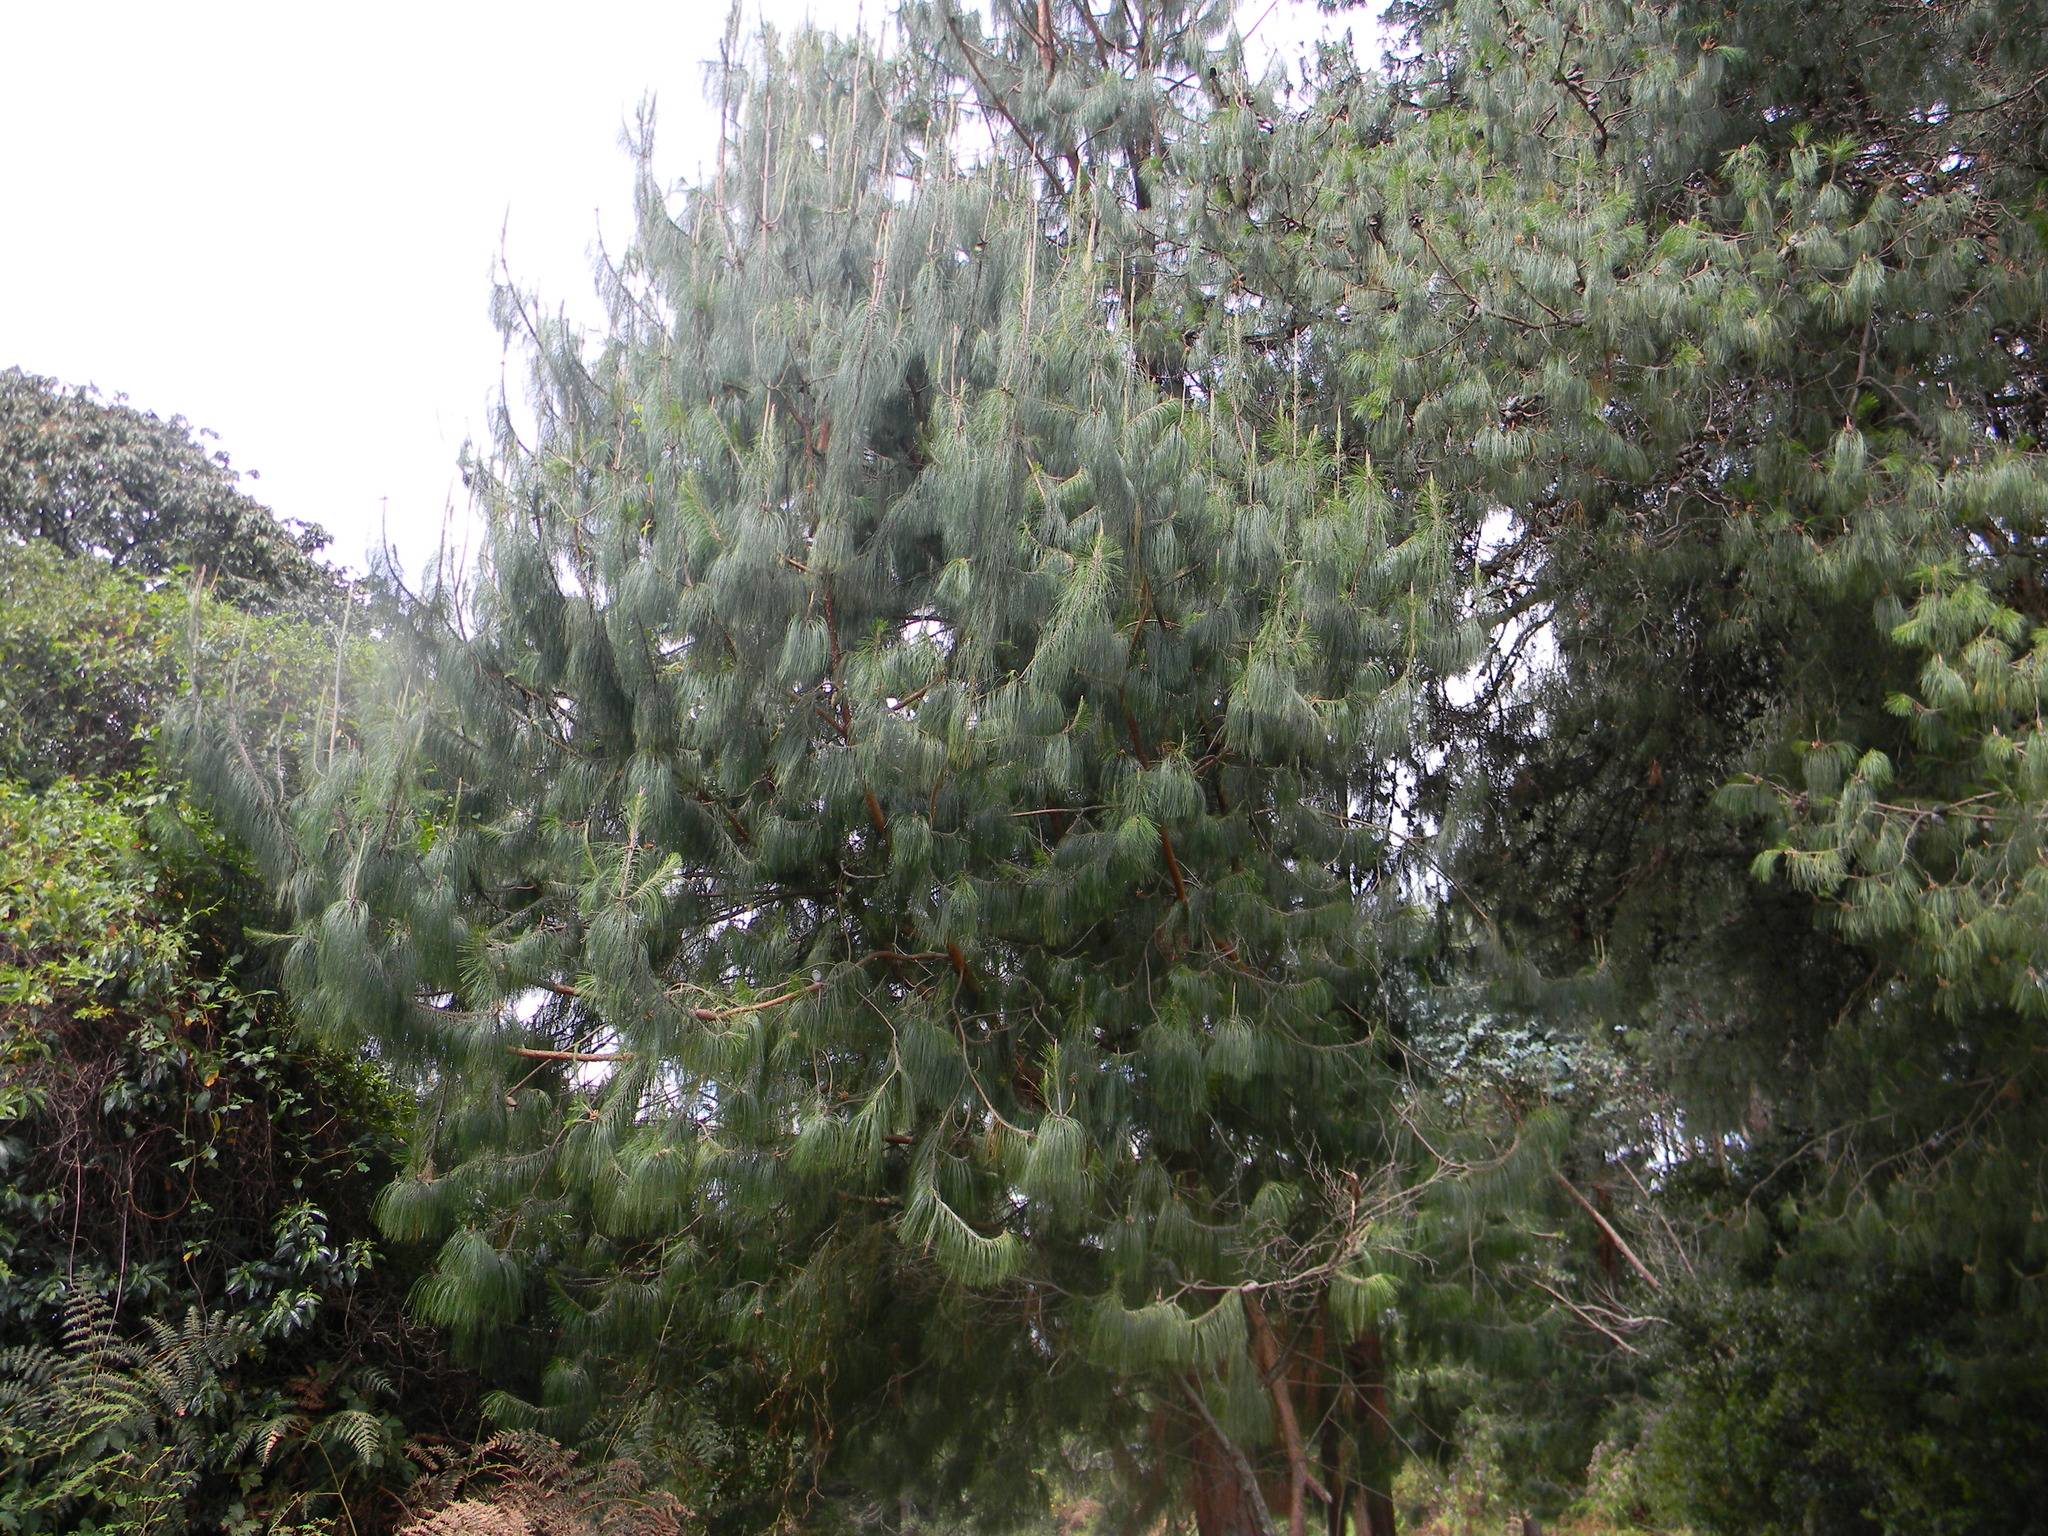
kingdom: Plantae
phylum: Tracheophyta
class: Pinopsida
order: Pinales
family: Pinaceae
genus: Pinus
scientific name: Pinus patula
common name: Mexican weeping pine
